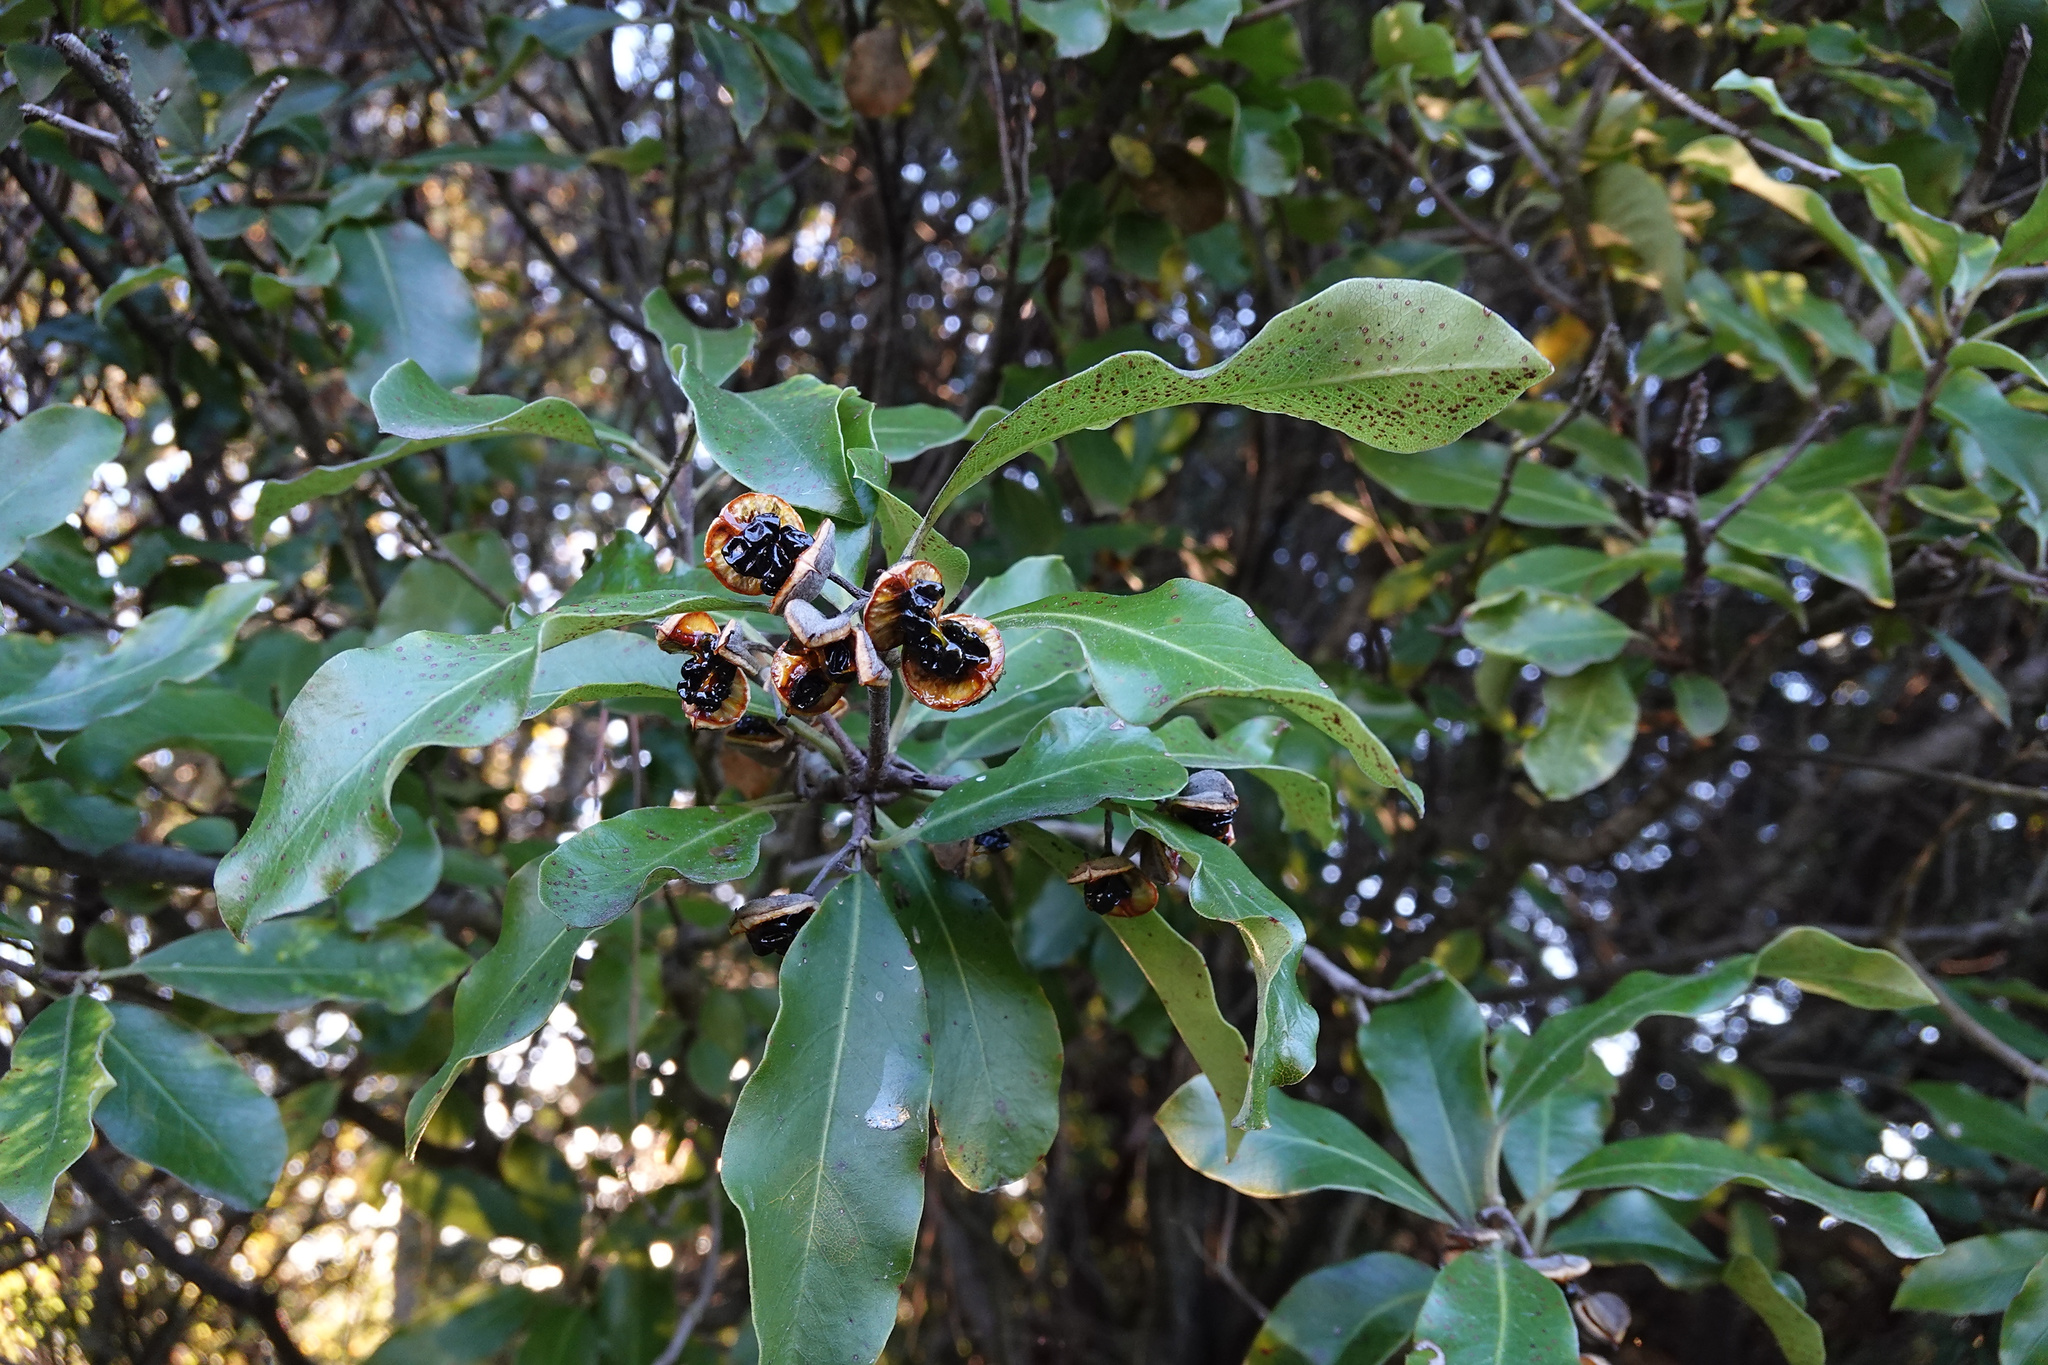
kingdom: Plantae
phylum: Tracheophyta
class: Magnoliopsida
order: Apiales
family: Pittosporaceae
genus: Pittosporum
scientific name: Pittosporum tenuifolium
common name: Kohuhu
